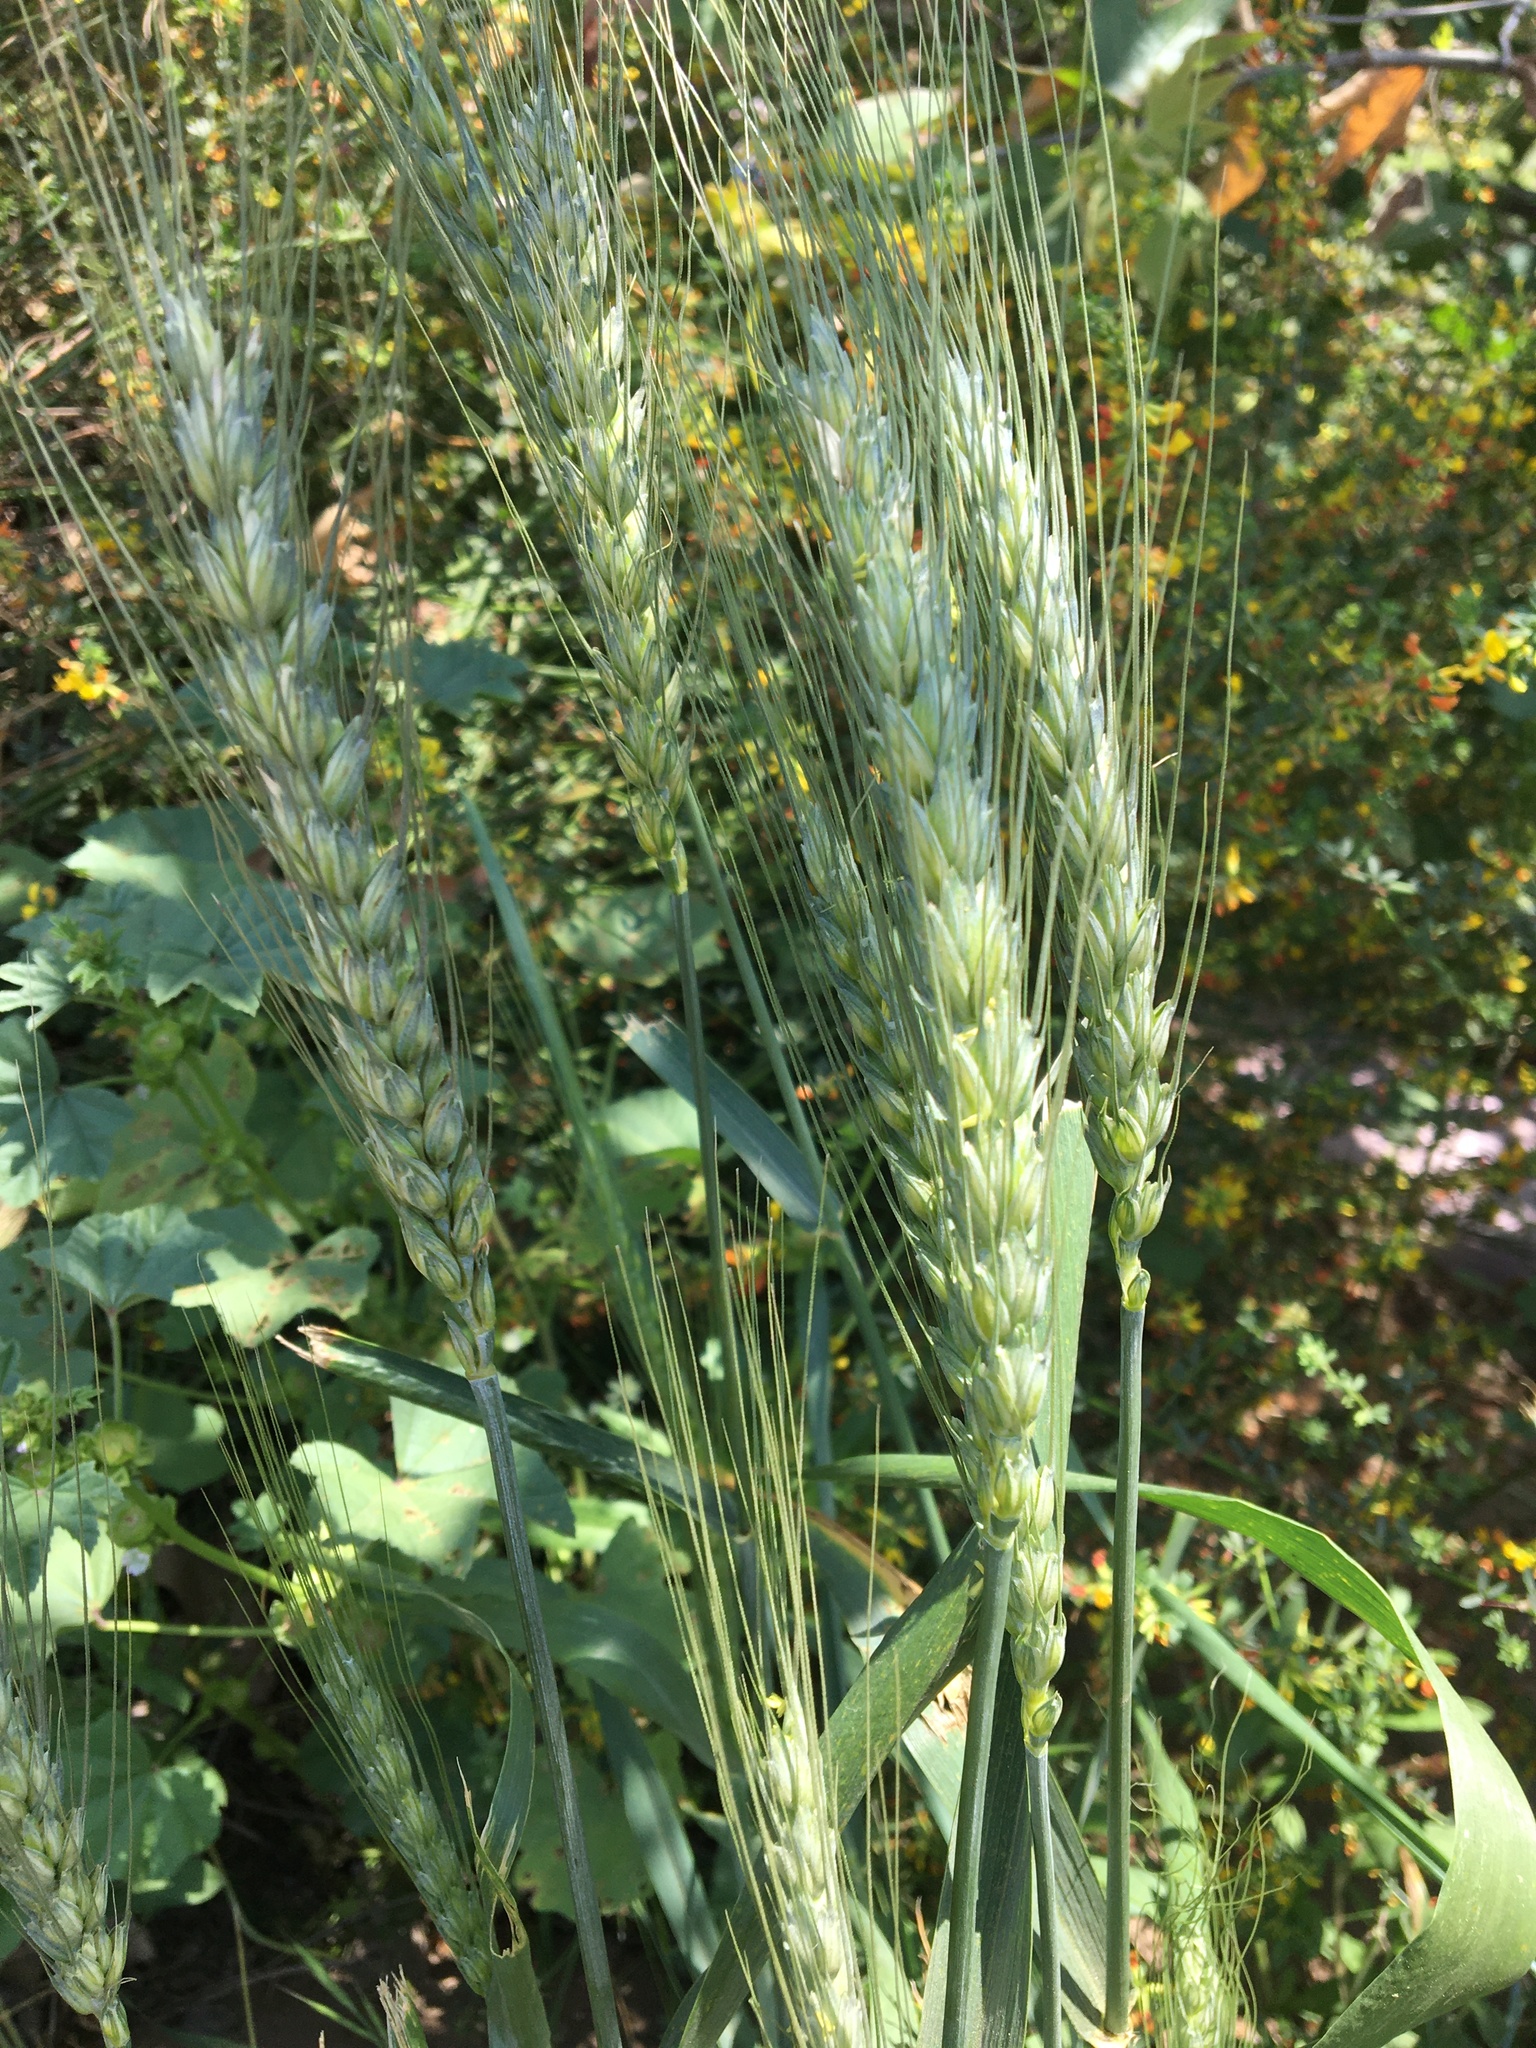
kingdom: Plantae
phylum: Tracheophyta
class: Liliopsida
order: Poales
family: Poaceae
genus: Triticum
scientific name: Triticum aestivum
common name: Common wheat
